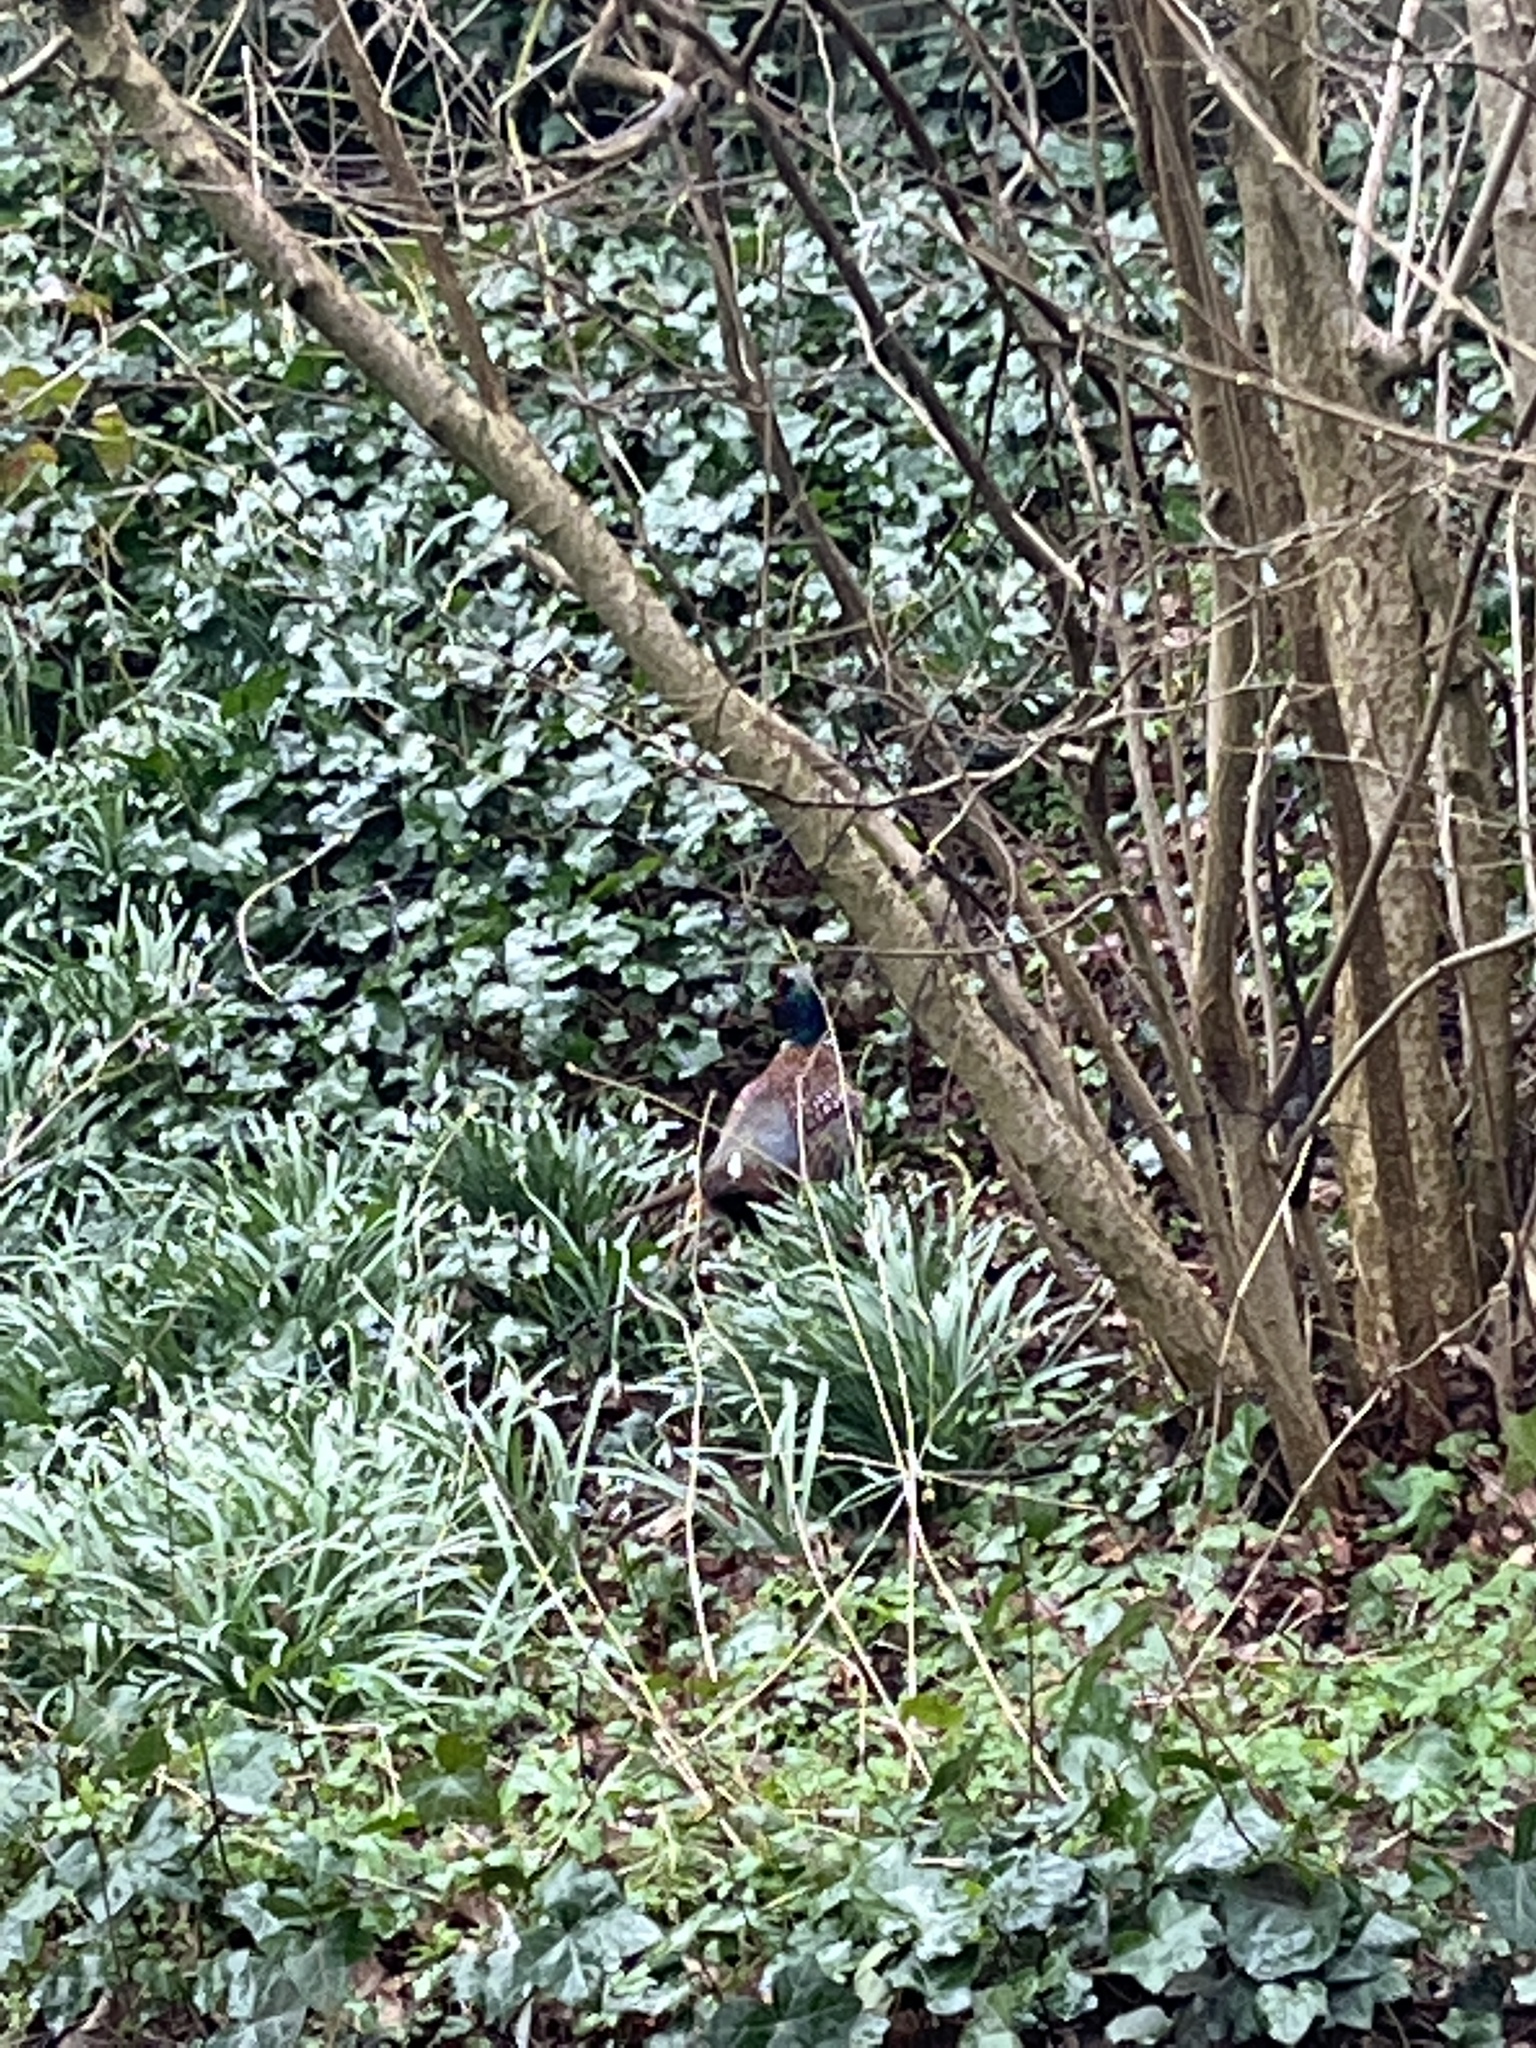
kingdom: Animalia
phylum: Chordata
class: Aves
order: Galliformes
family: Phasianidae
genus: Phasianus
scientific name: Phasianus colchicus
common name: Common pheasant
